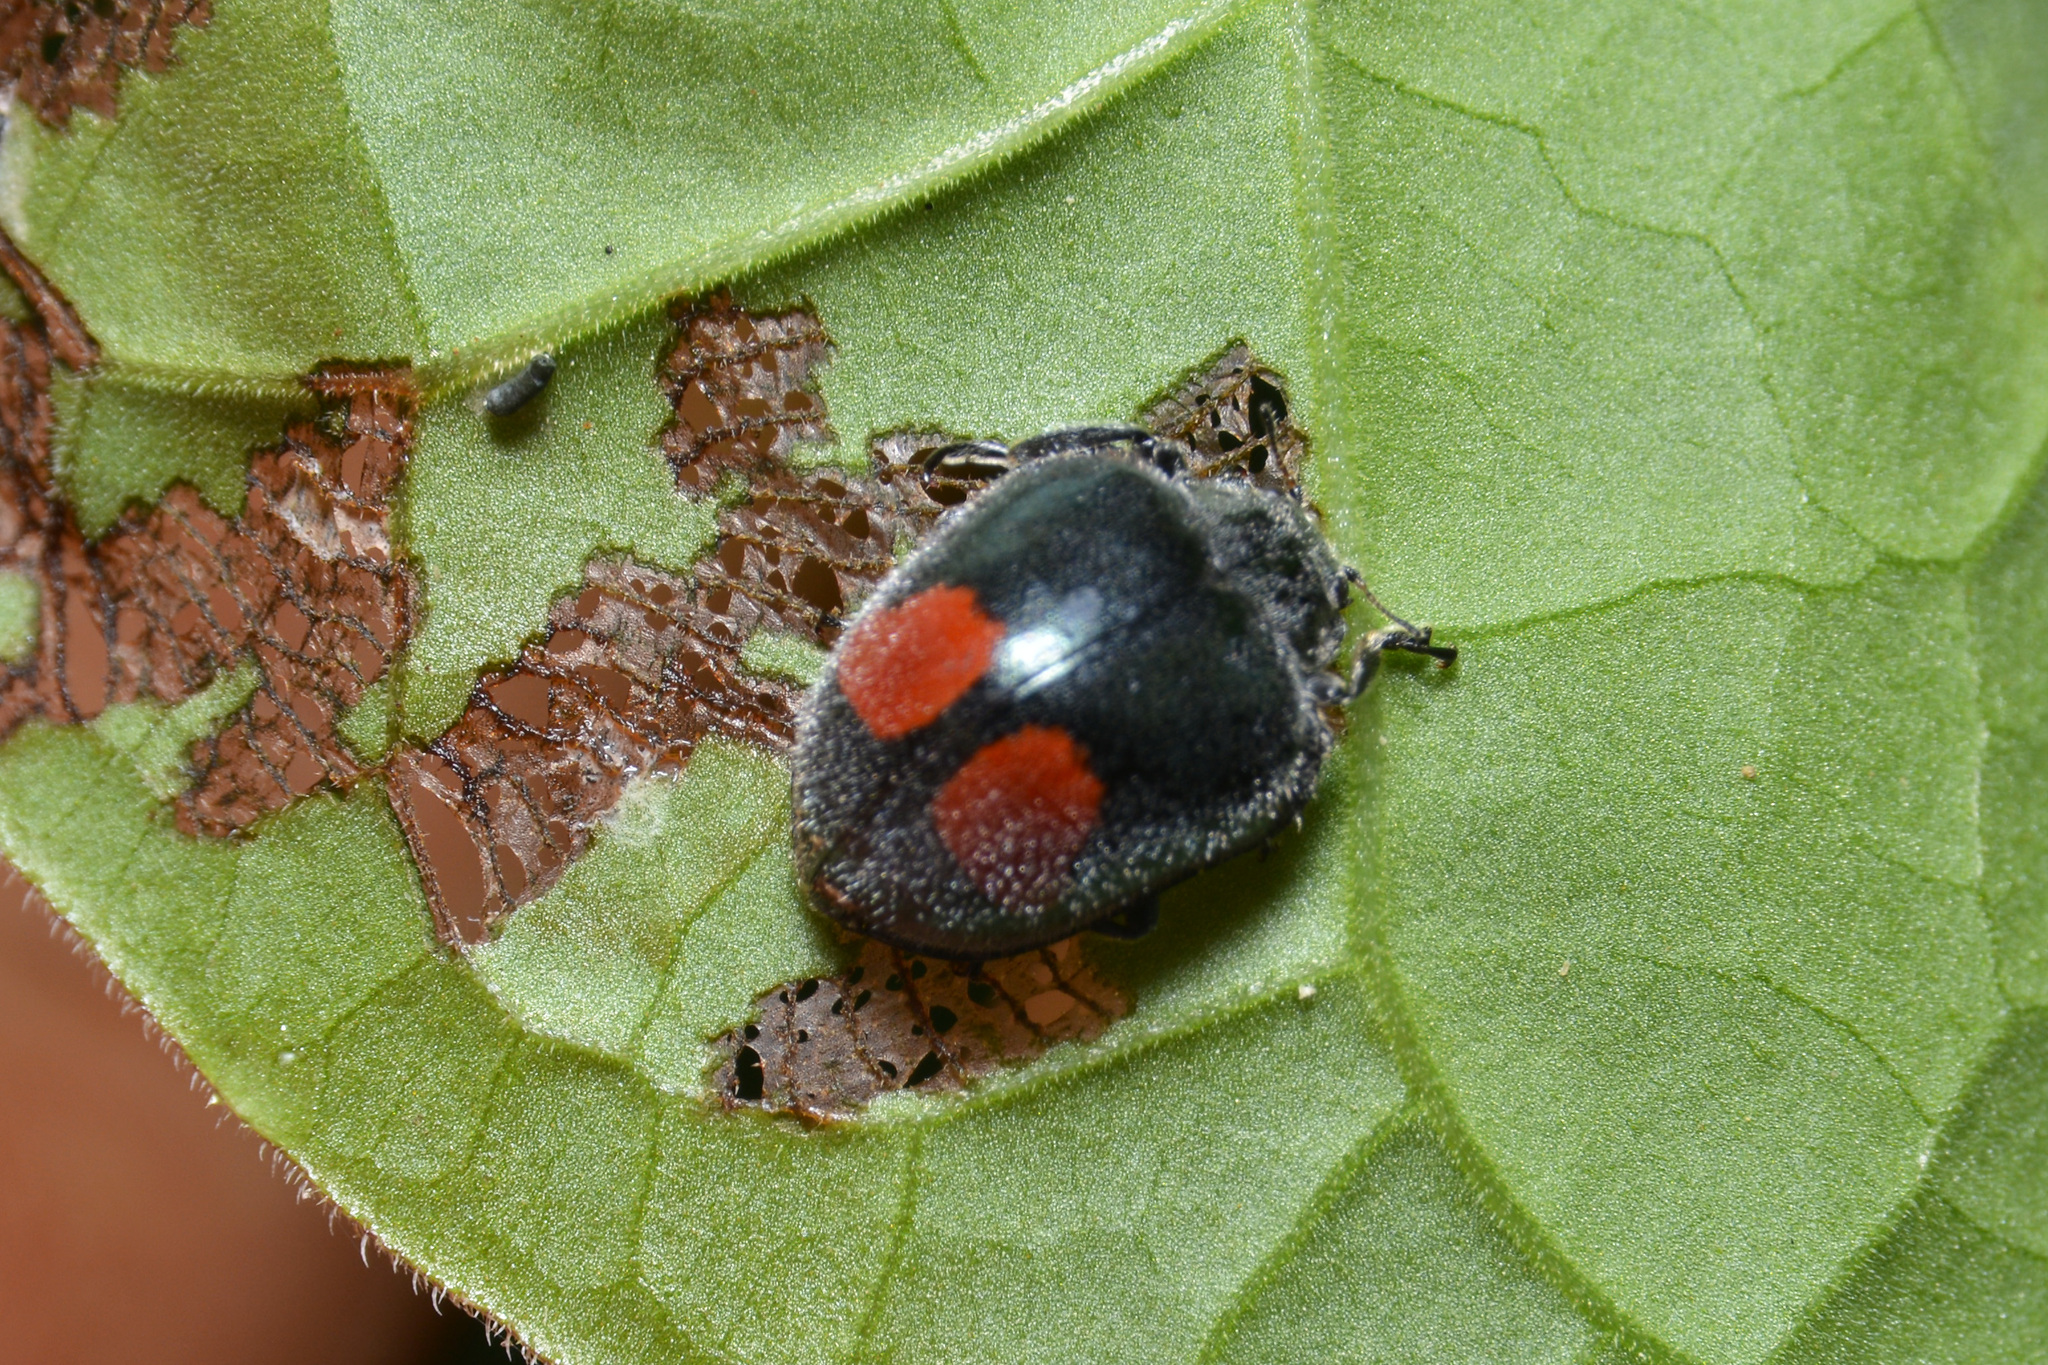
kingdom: Animalia
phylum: Arthropoda
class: Insecta
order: Coleoptera
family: Coccinellidae
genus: Epilachna
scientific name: Epilachna sellata
